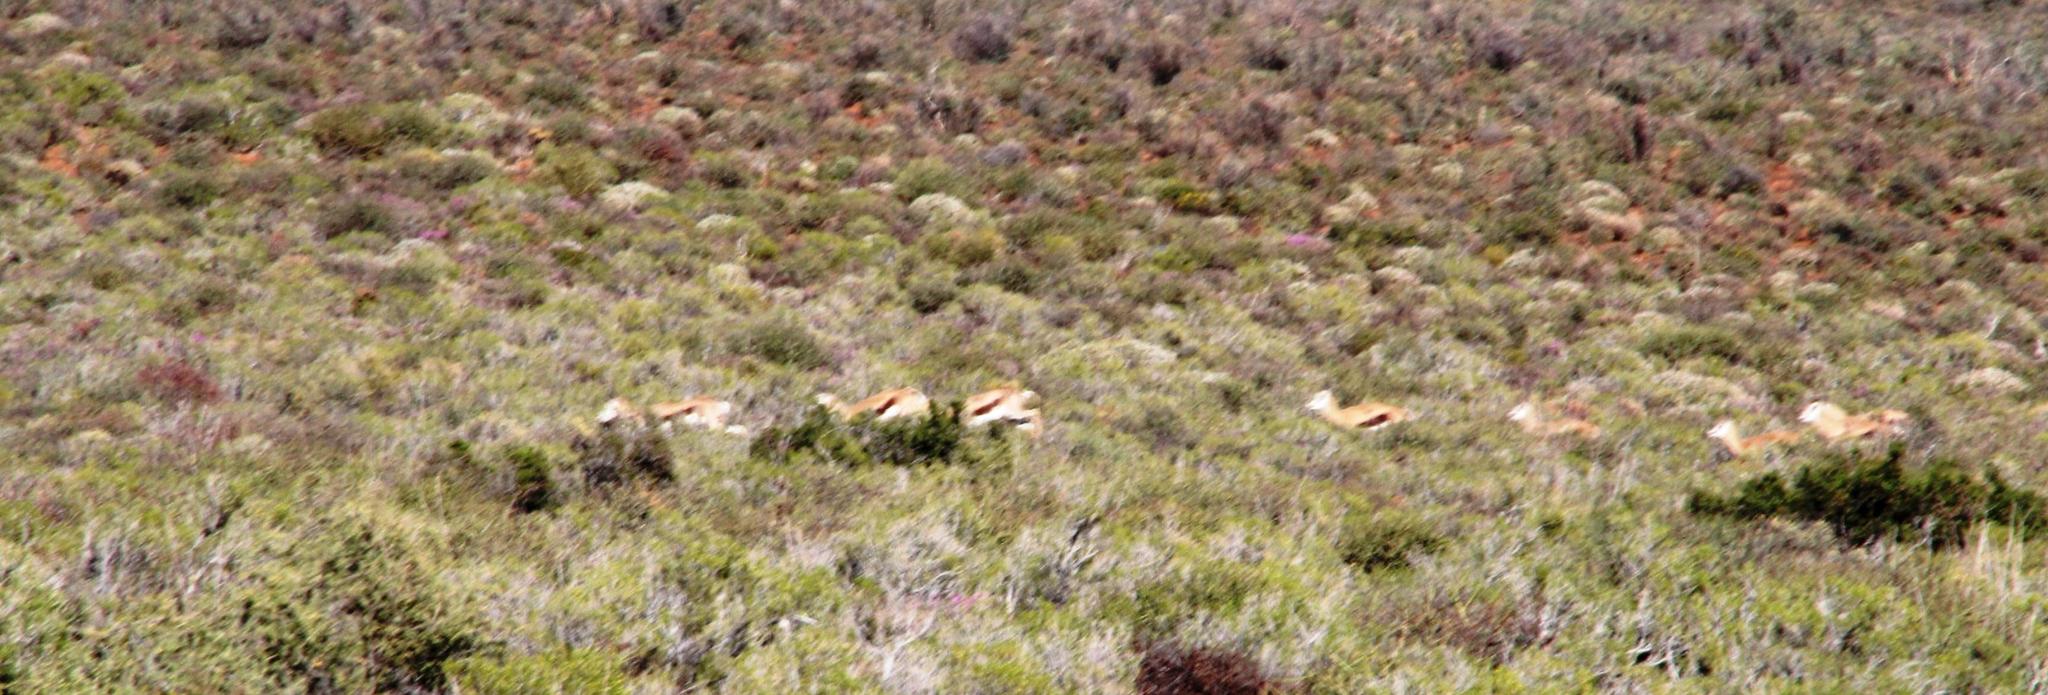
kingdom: Animalia
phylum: Chordata
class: Mammalia
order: Artiodactyla
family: Bovidae
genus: Antidorcas
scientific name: Antidorcas marsupialis
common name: Springbok
